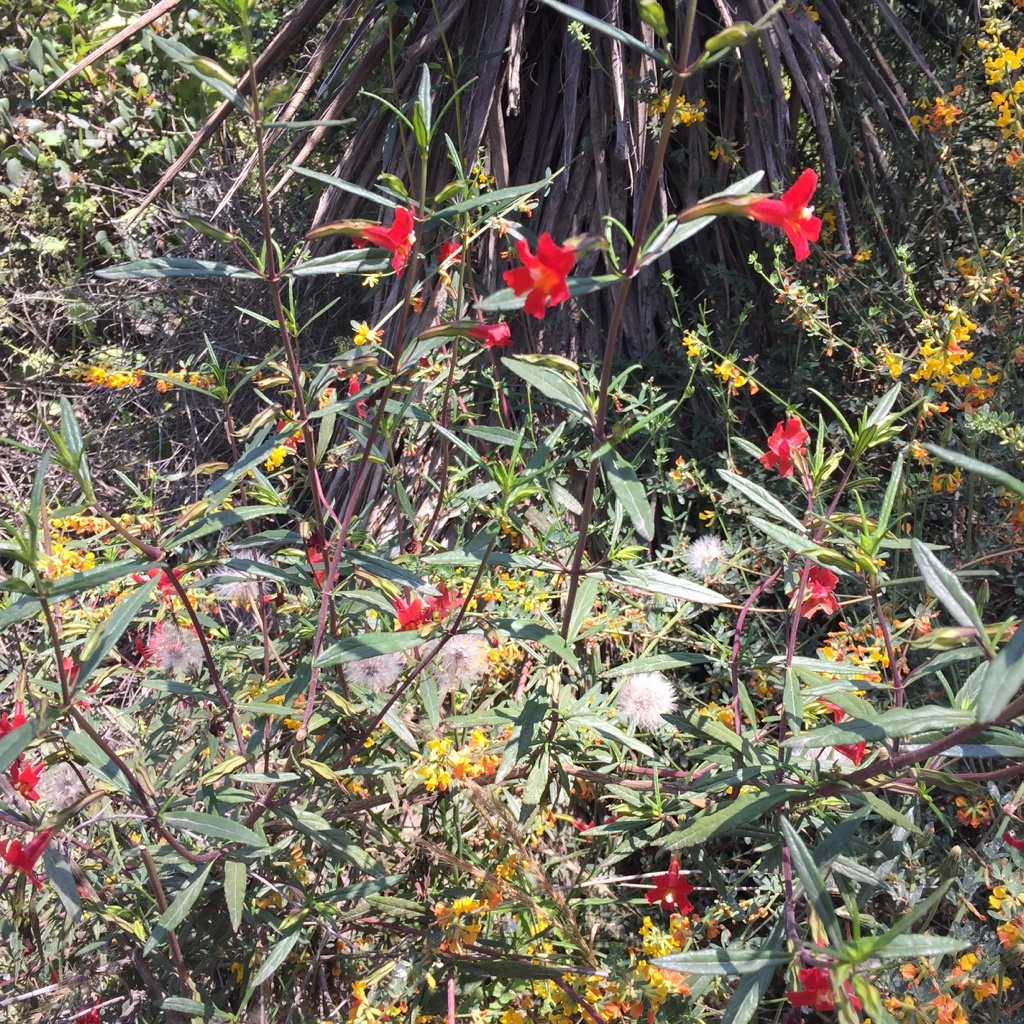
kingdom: Plantae
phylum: Tracheophyta
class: Magnoliopsida
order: Lamiales
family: Phrymaceae
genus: Diplacus
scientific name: Diplacus puniceus
